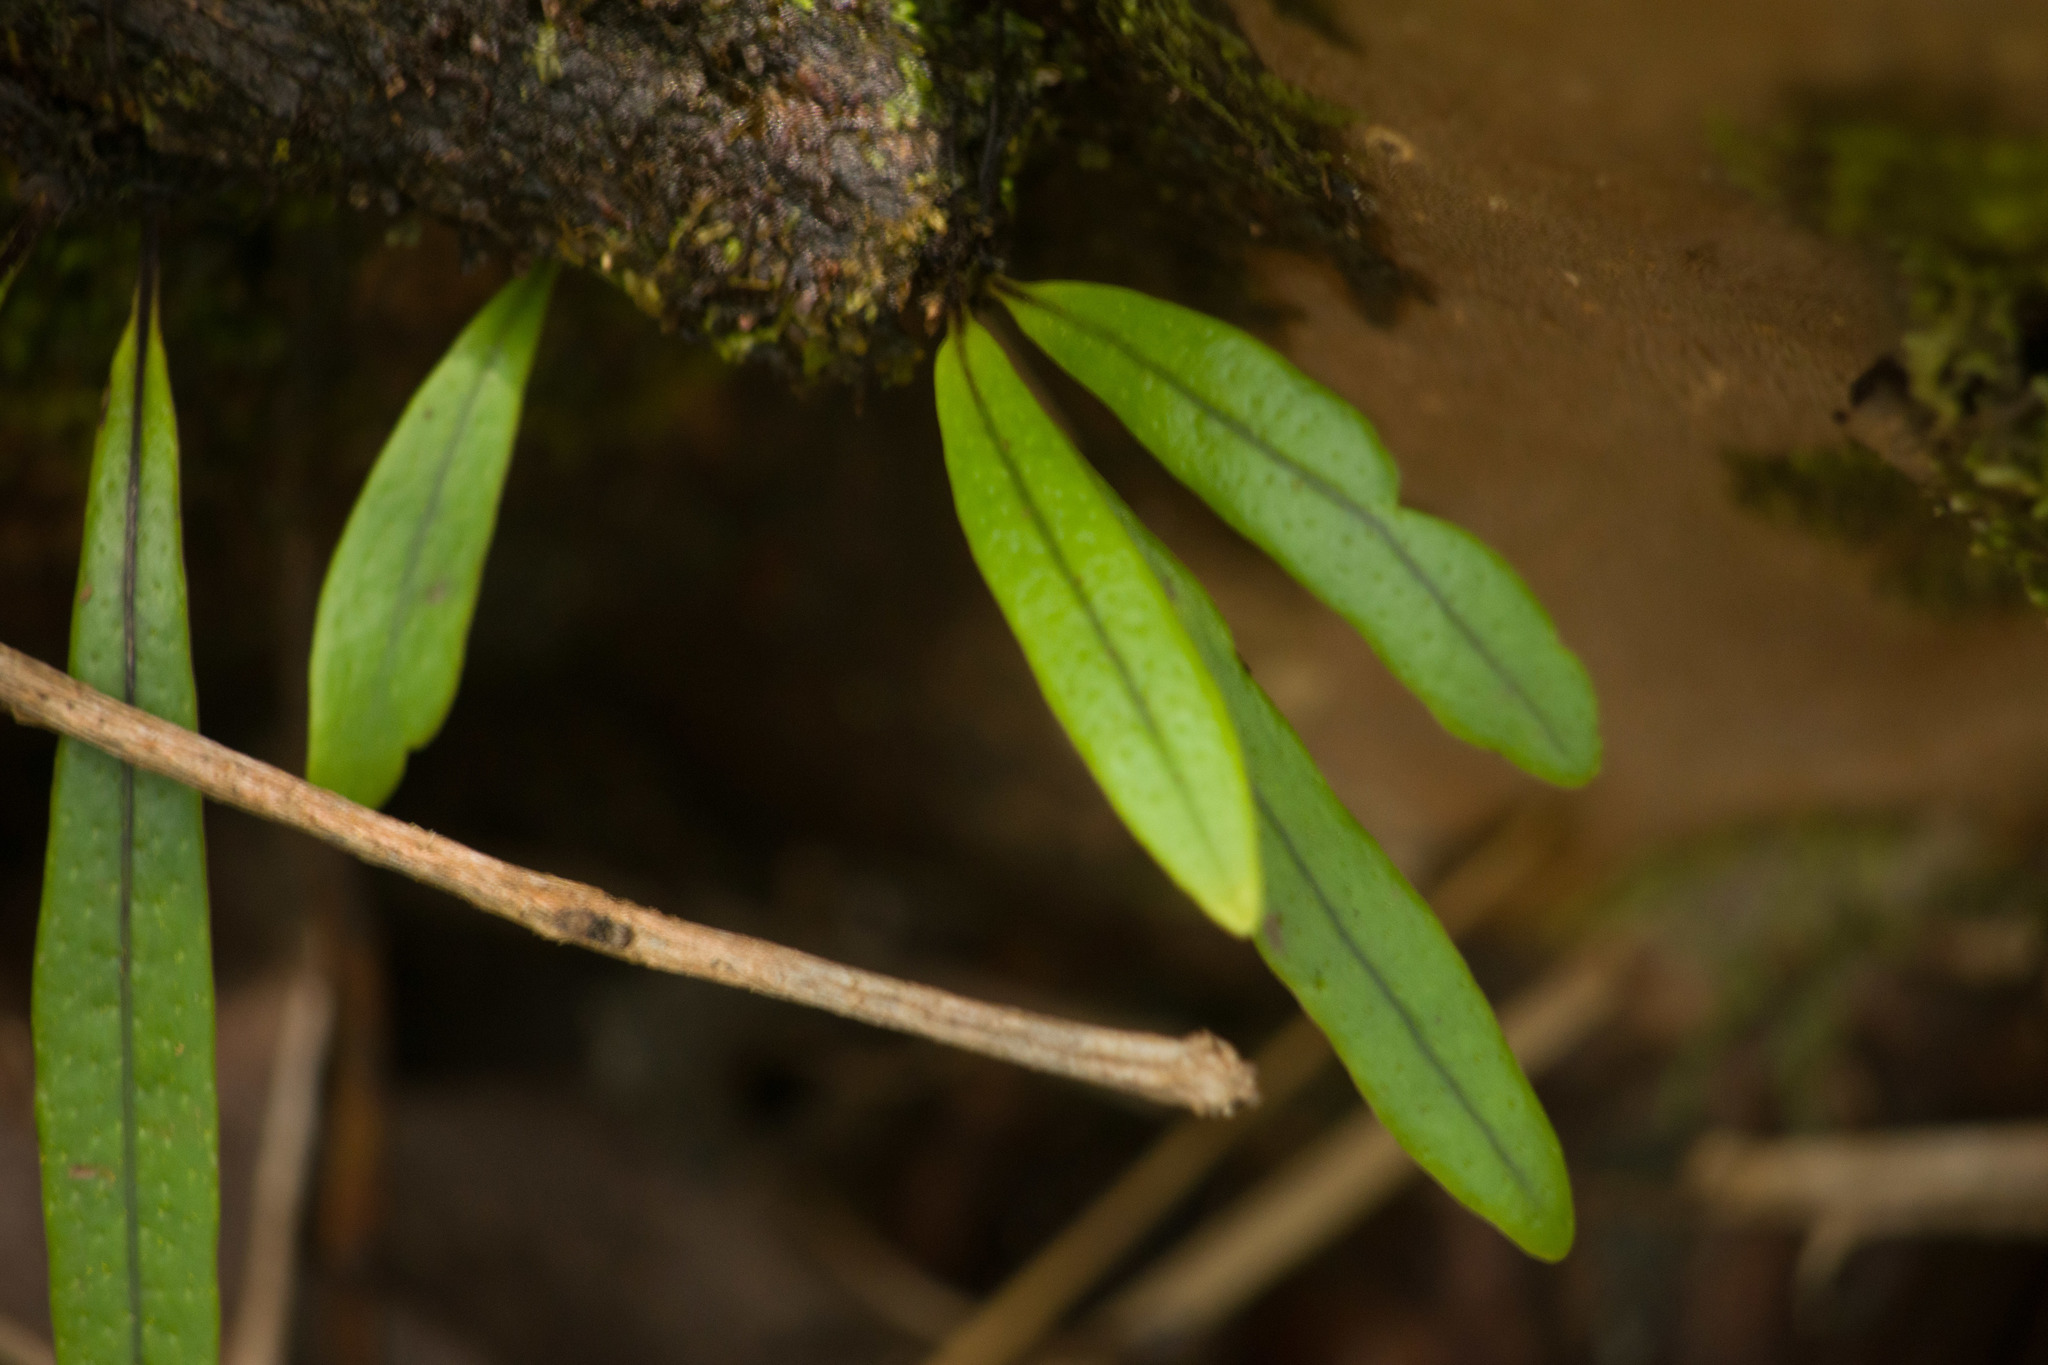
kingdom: Plantae
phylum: Tracheophyta
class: Polypodiopsida
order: Polypodiales
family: Polypodiaceae
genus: Lepisorus
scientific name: Lepisorus thunbergianus
